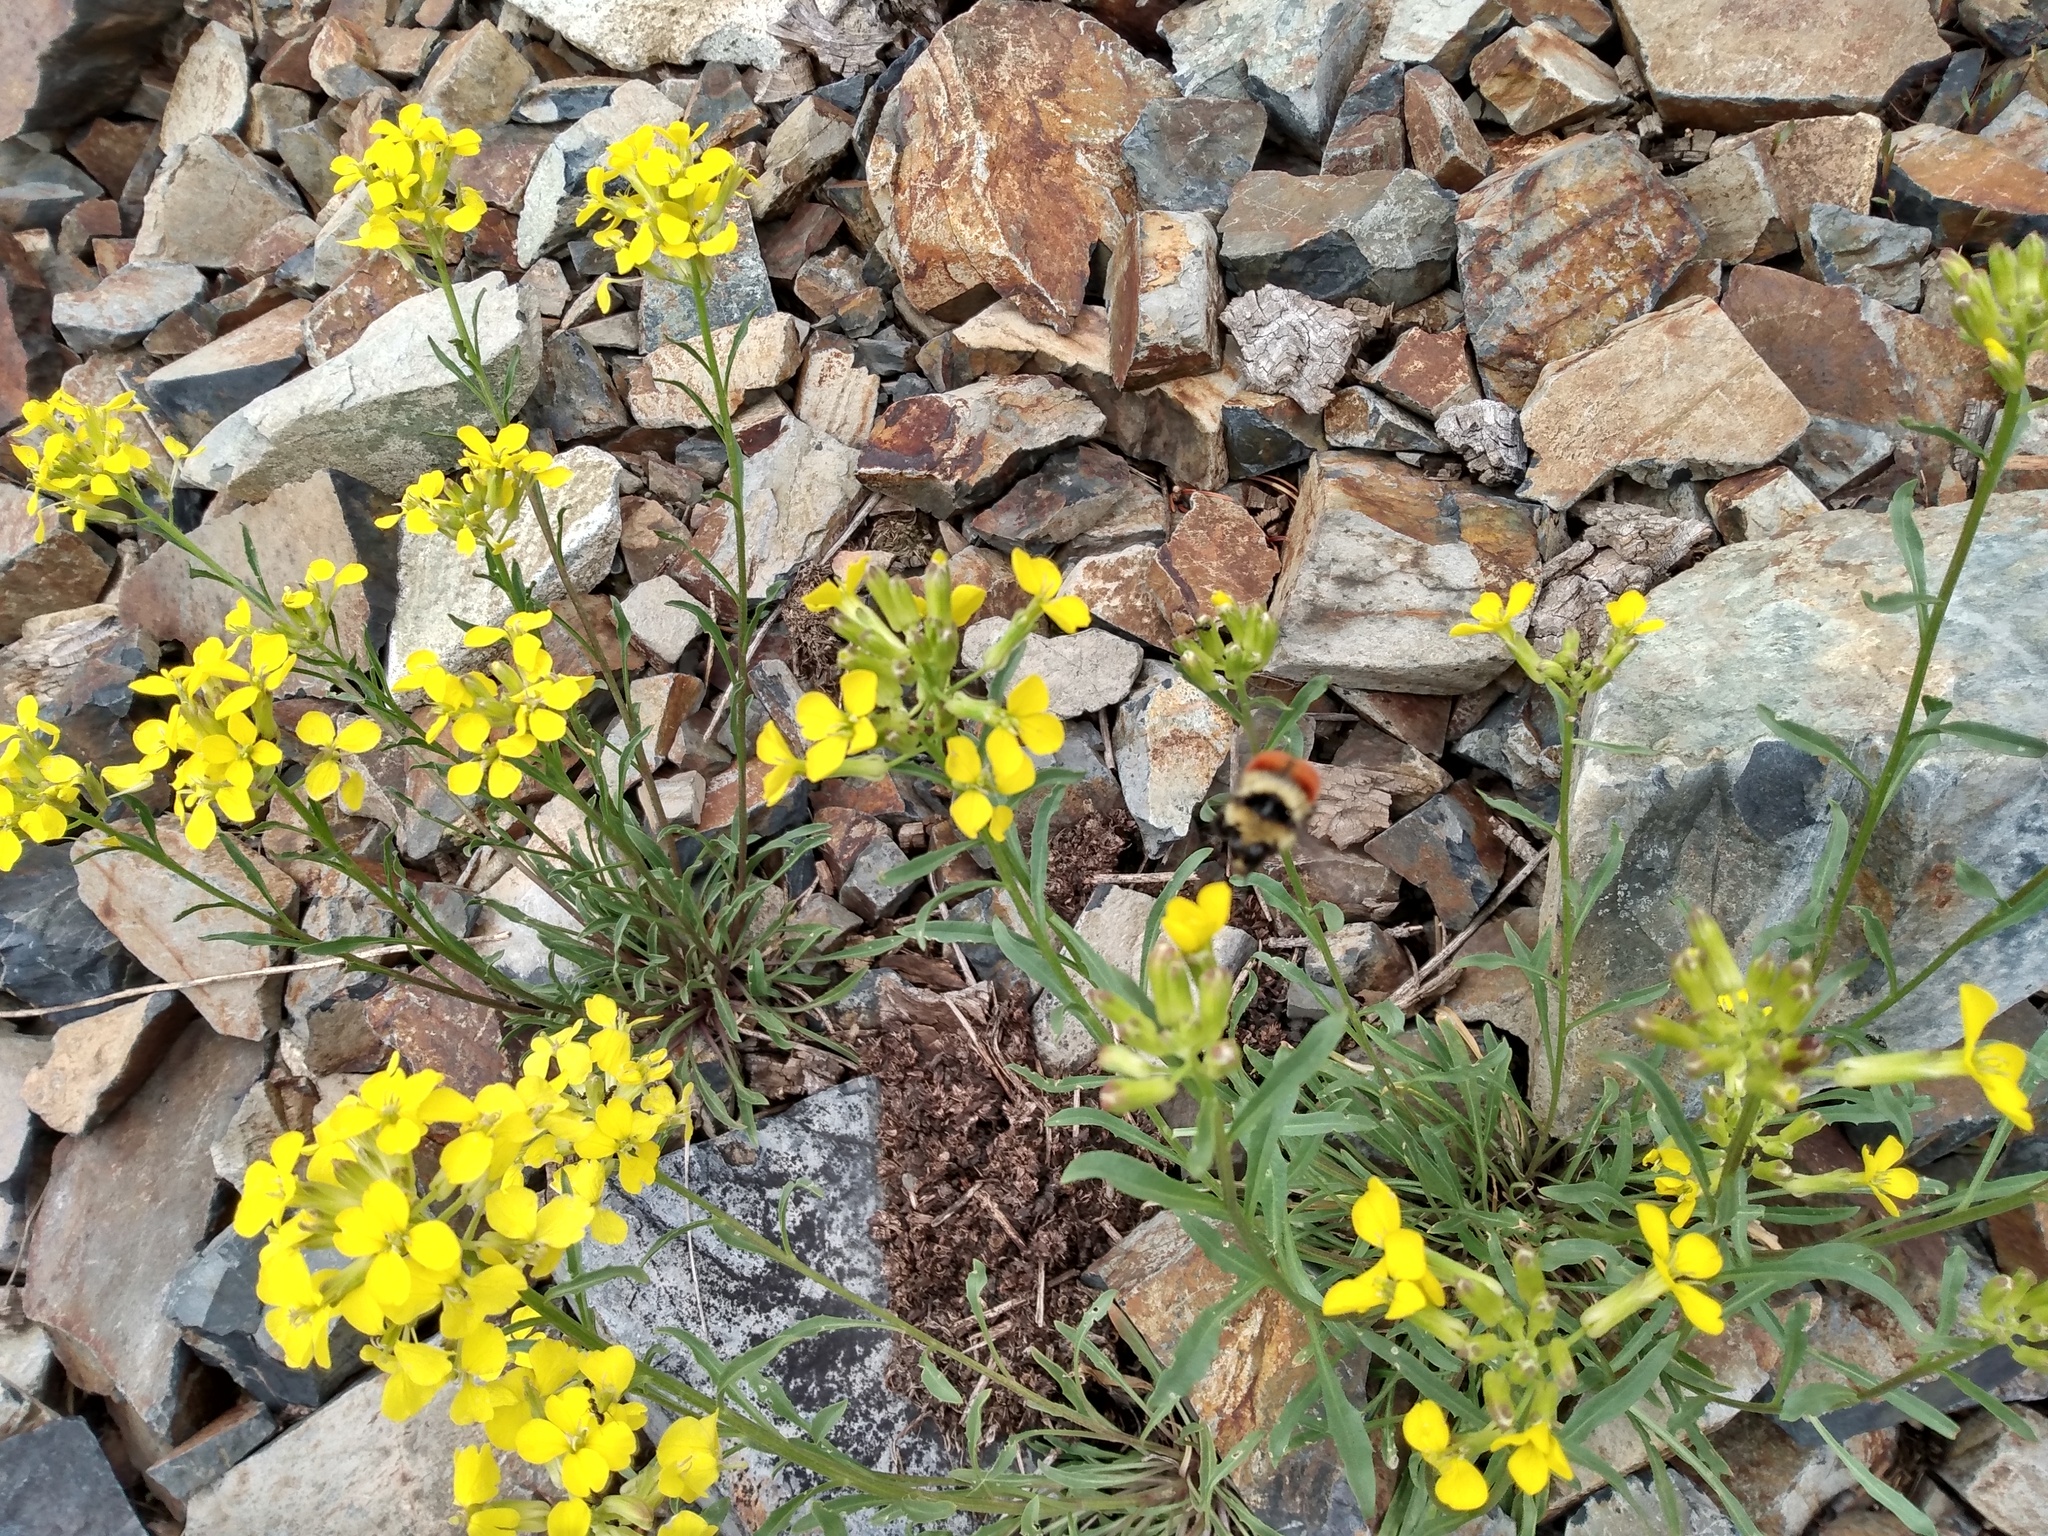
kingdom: Plantae
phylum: Tracheophyta
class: Magnoliopsida
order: Brassicales
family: Brassicaceae
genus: Erysimum
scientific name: Erysimum capitatum
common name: Western wallflower
